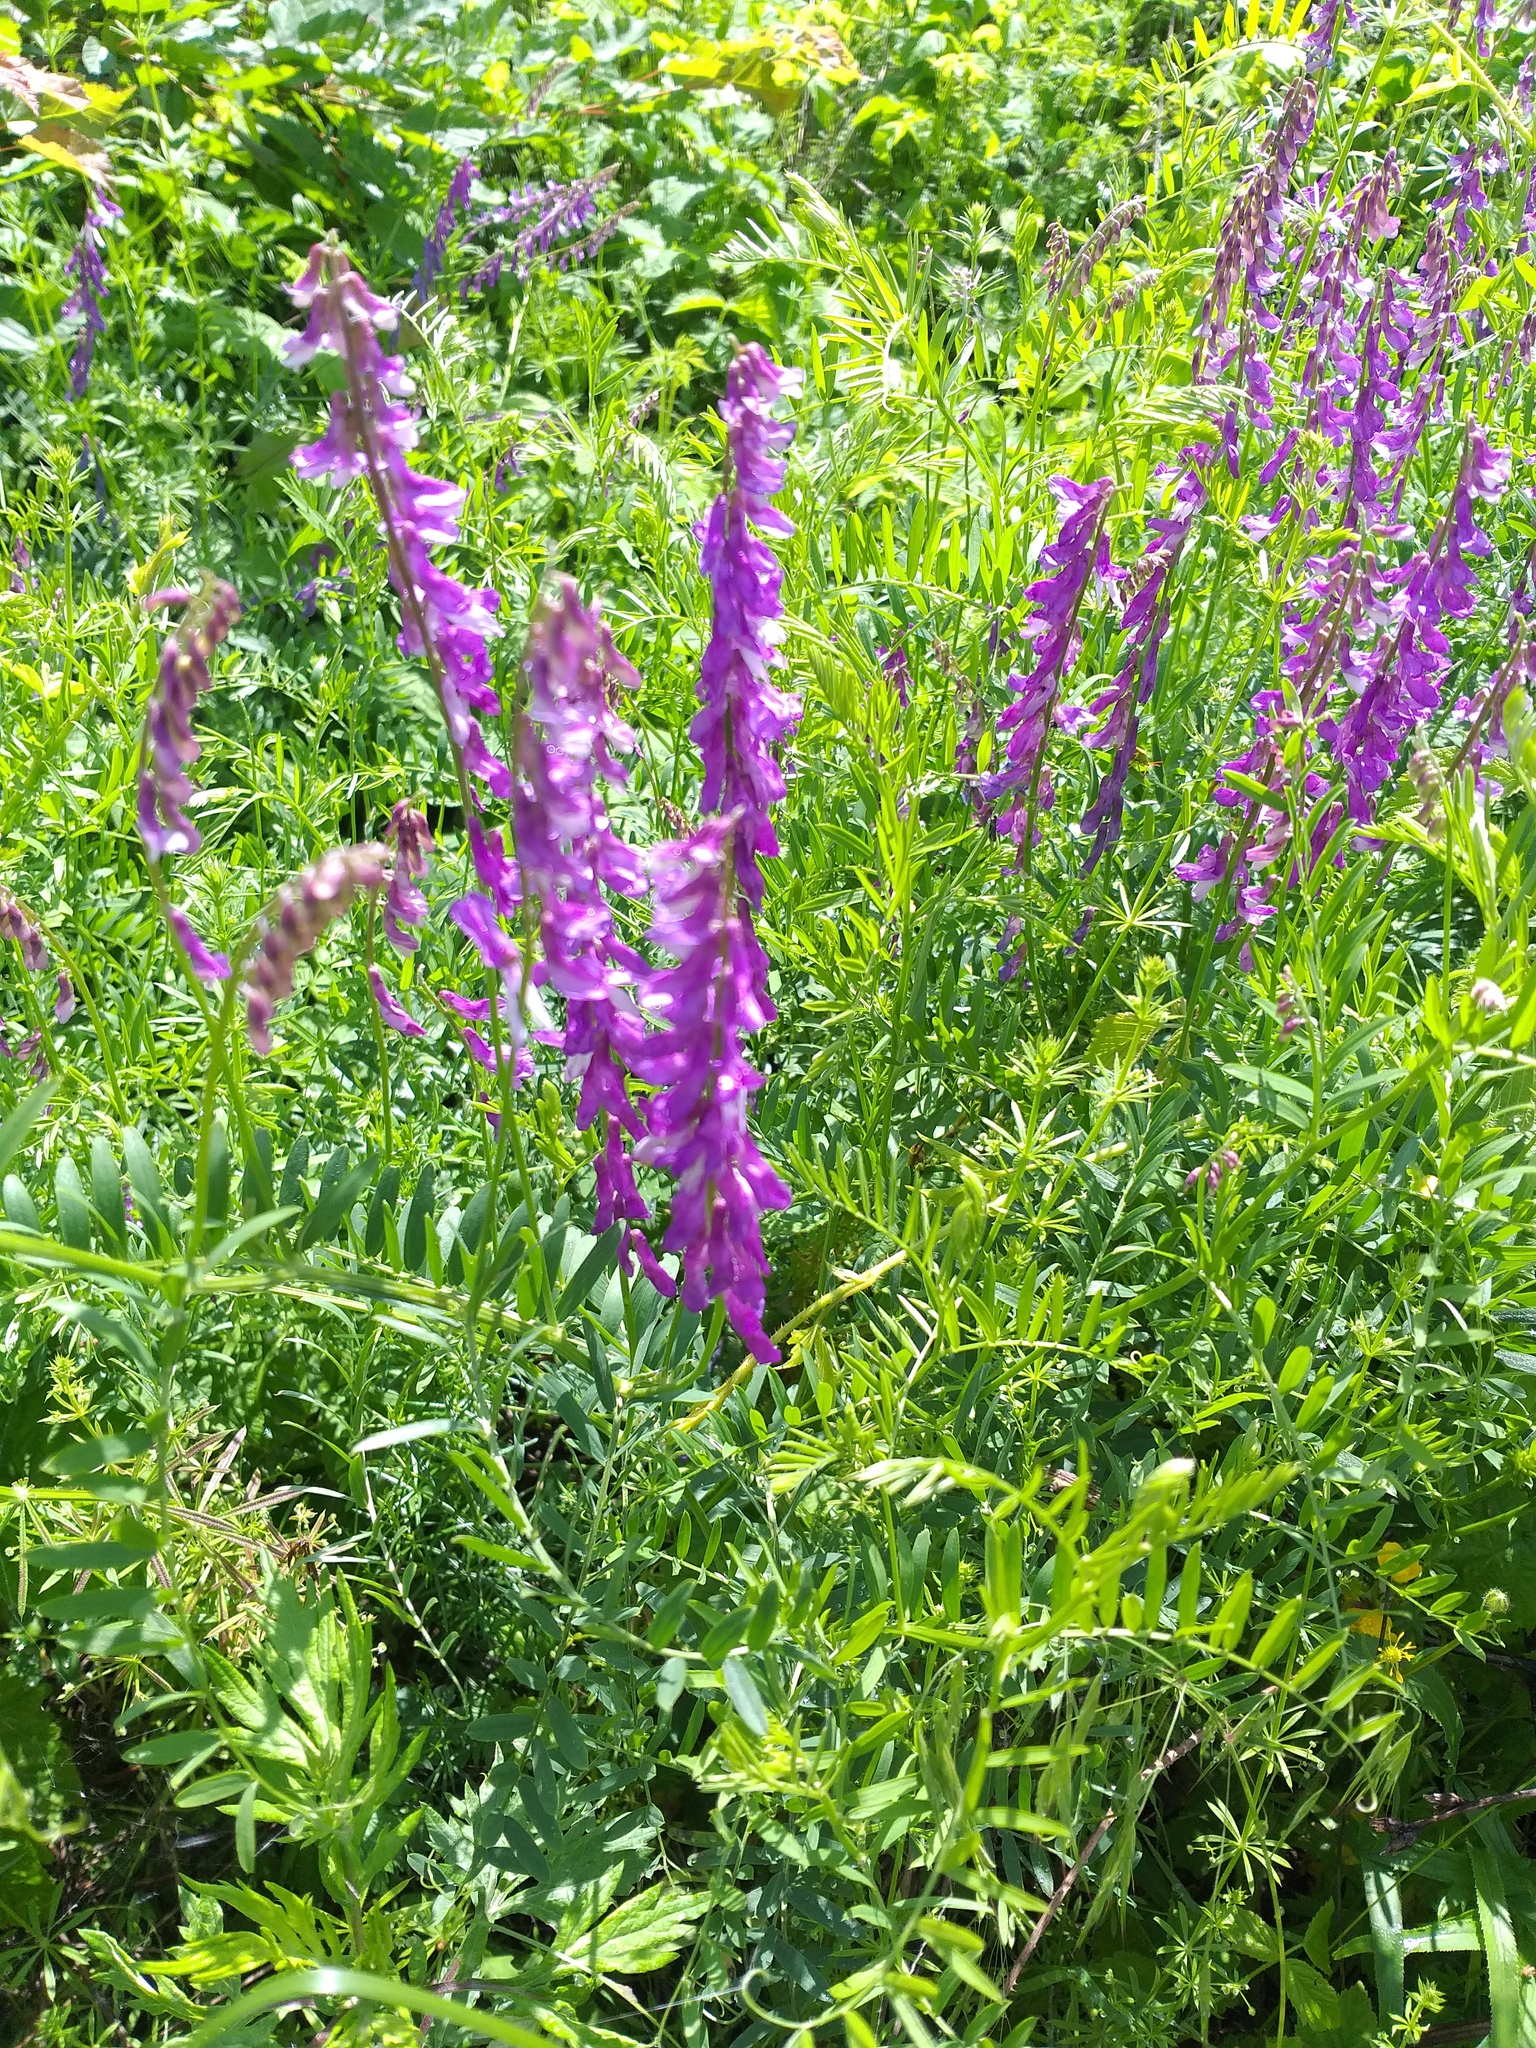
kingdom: Plantae
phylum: Tracheophyta
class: Magnoliopsida
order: Fabales
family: Fabaceae
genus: Vicia
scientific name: Vicia tenuifolia
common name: Fine-leaved vetch
